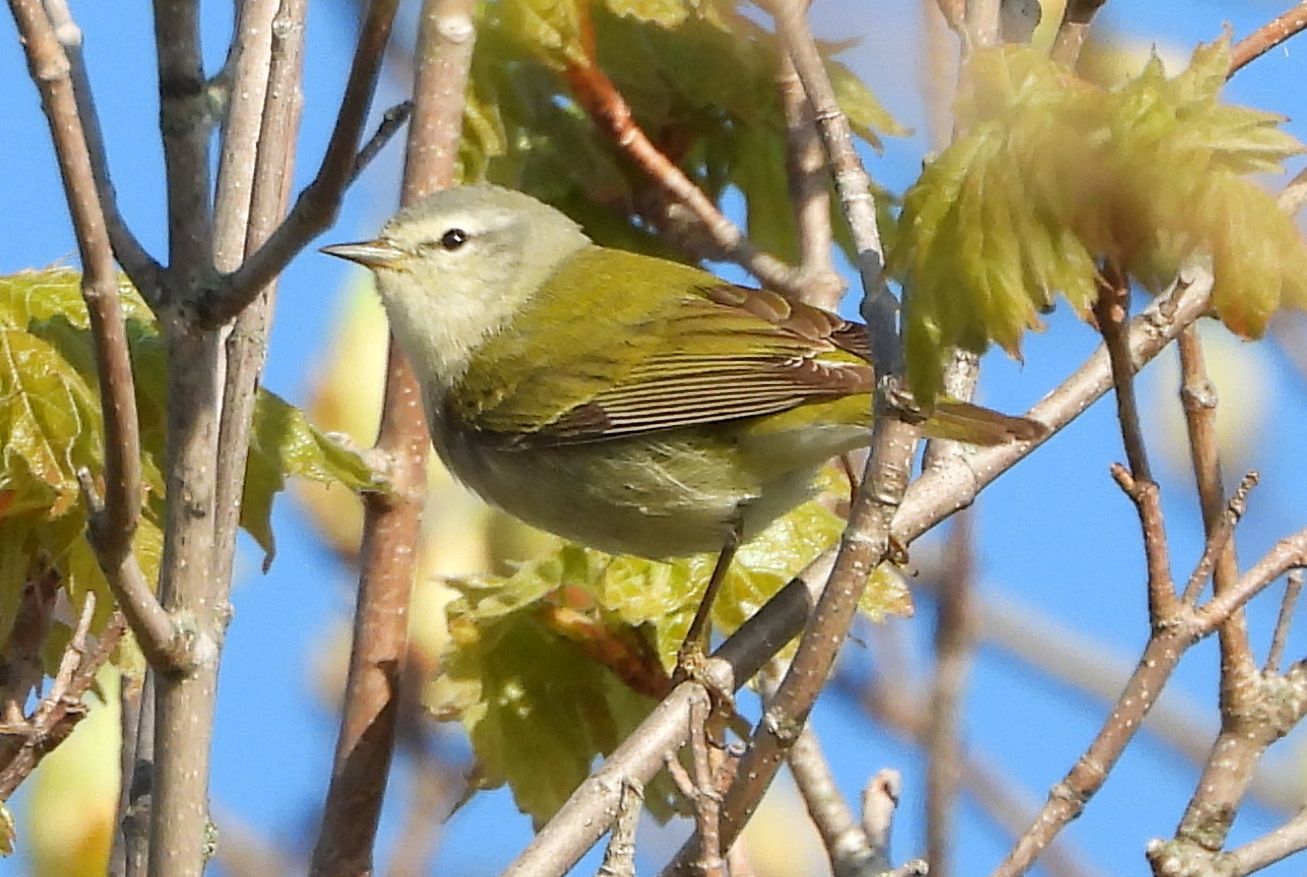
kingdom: Animalia
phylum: Chordata
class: Aves
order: Passeriformes
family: Parulidae
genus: Leiothlypis
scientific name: Leiothlypis peregrina
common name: Tennessee warbler
